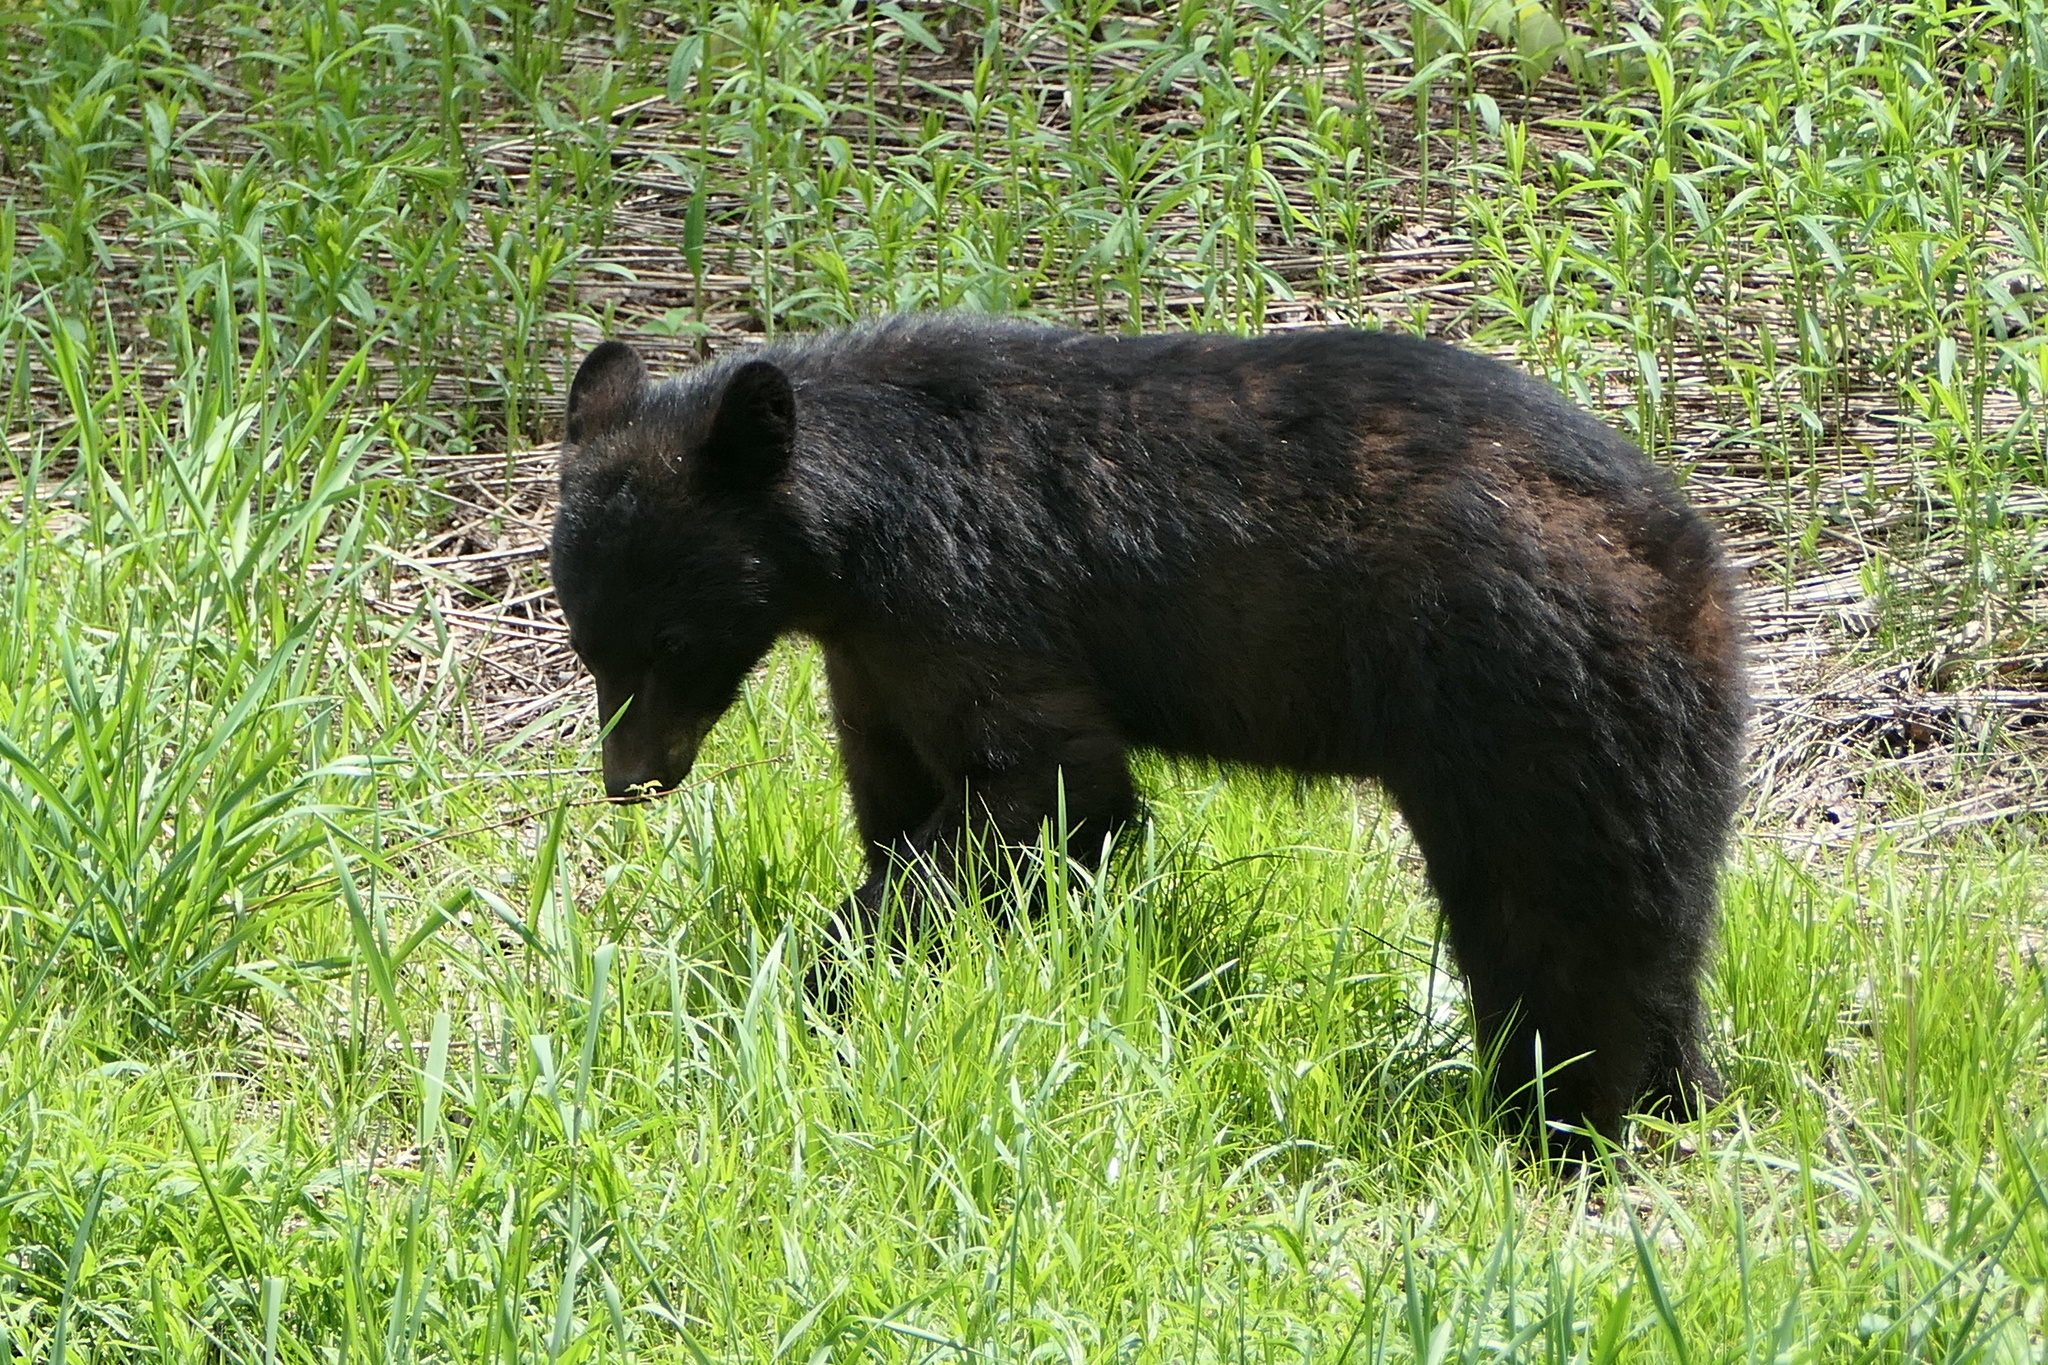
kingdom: Animalia
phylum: Chordata
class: Mammalia
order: Carnivora
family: Ursidae
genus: Ursus
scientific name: Ursus americanus
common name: American black bear
